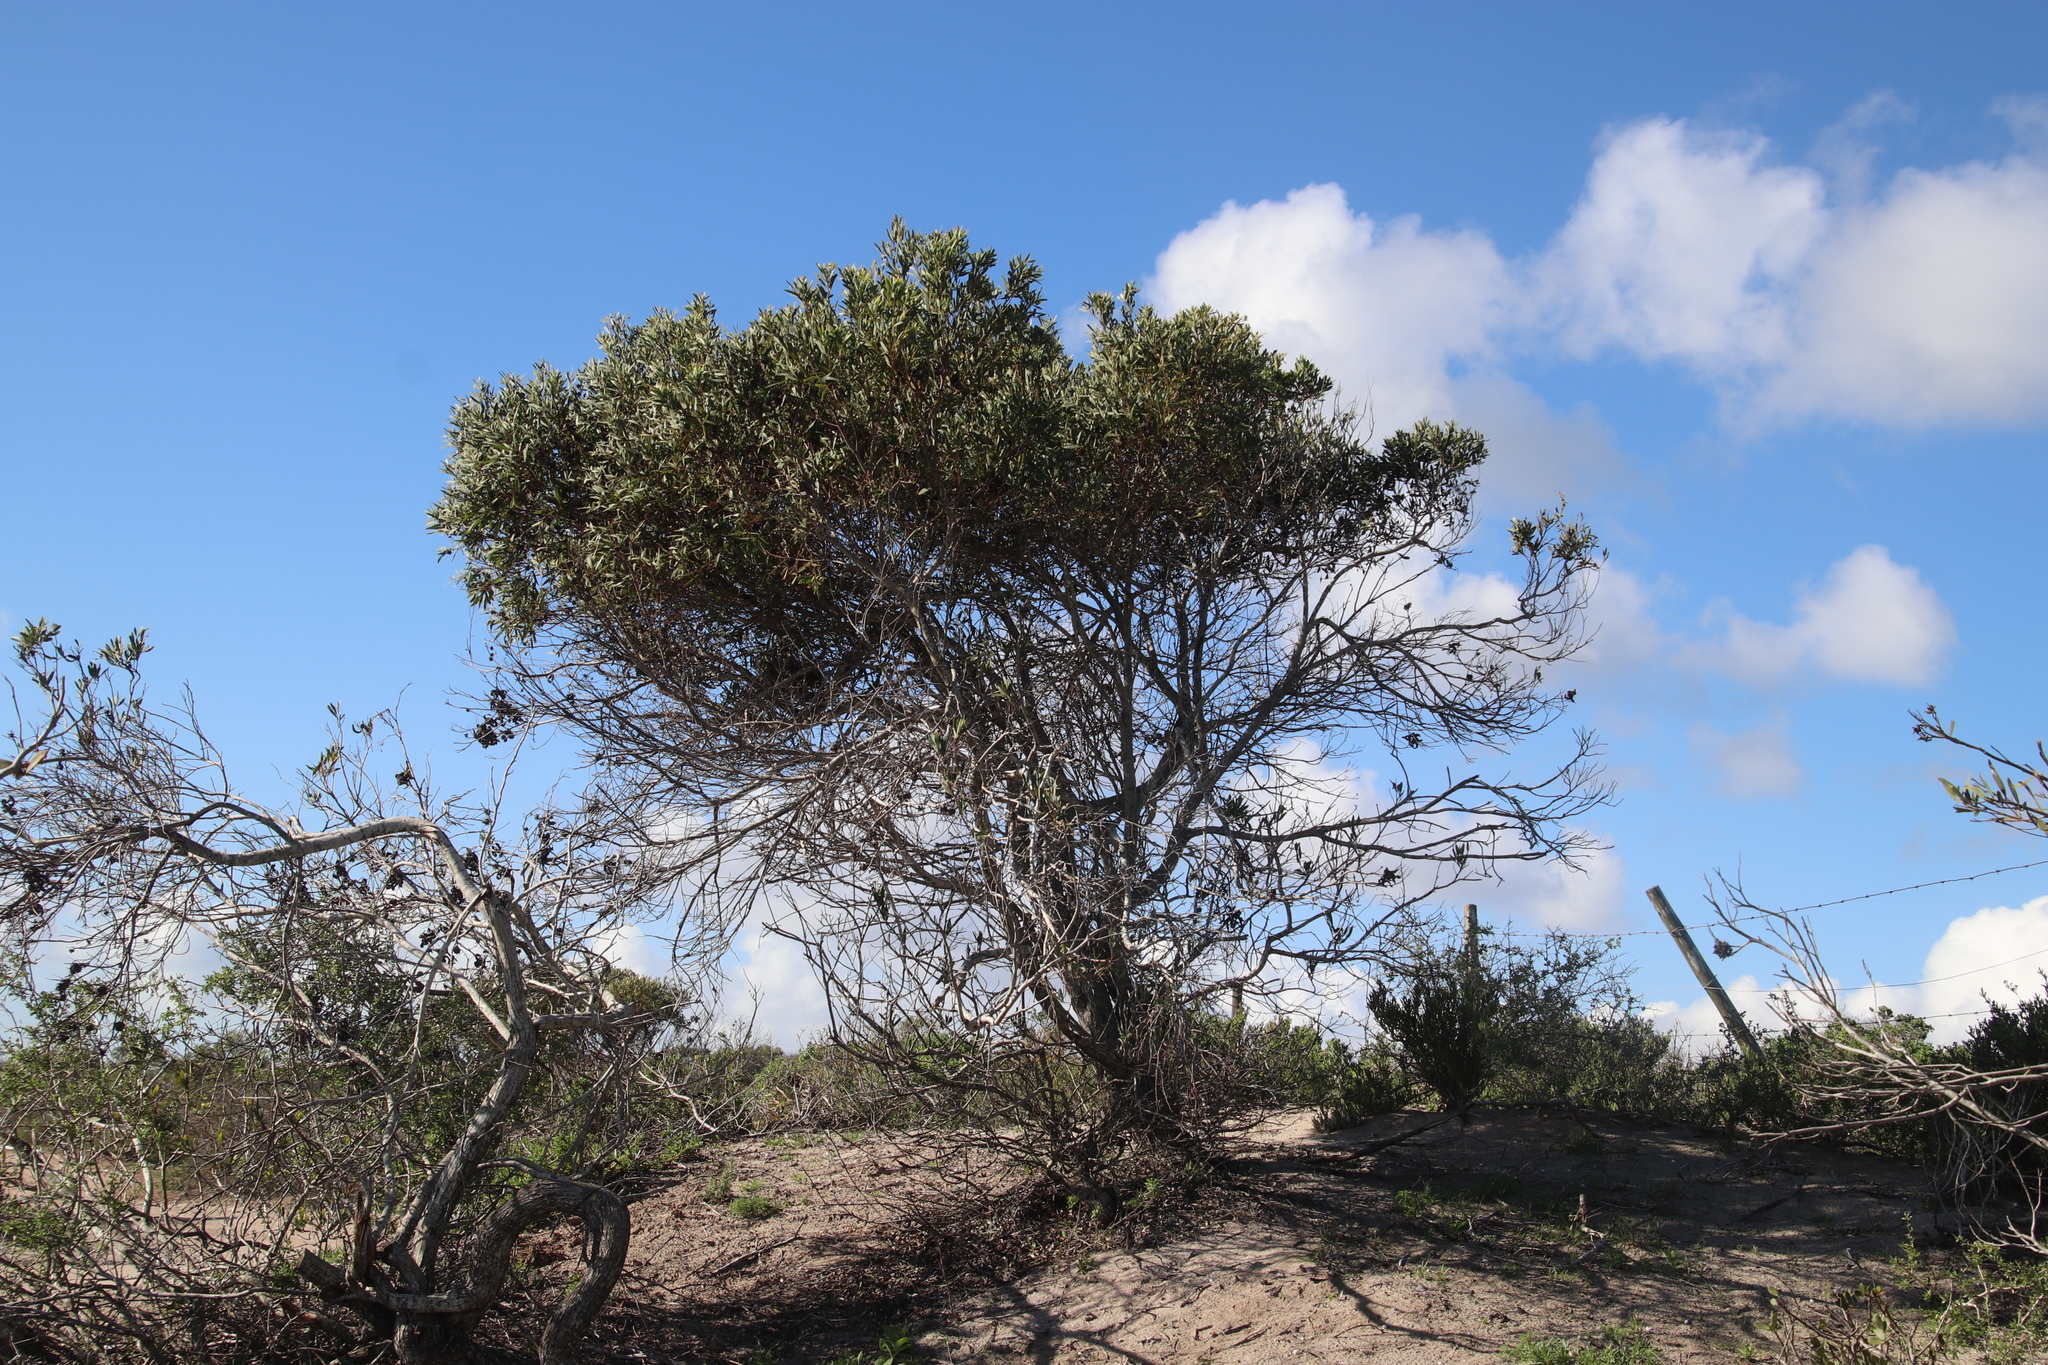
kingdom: Plantae
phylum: Tracheophyta
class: Magnoliopsida
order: Fabales
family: Fabaceae
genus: Acacia
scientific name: Acacia cyclops
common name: Coastal wattle
